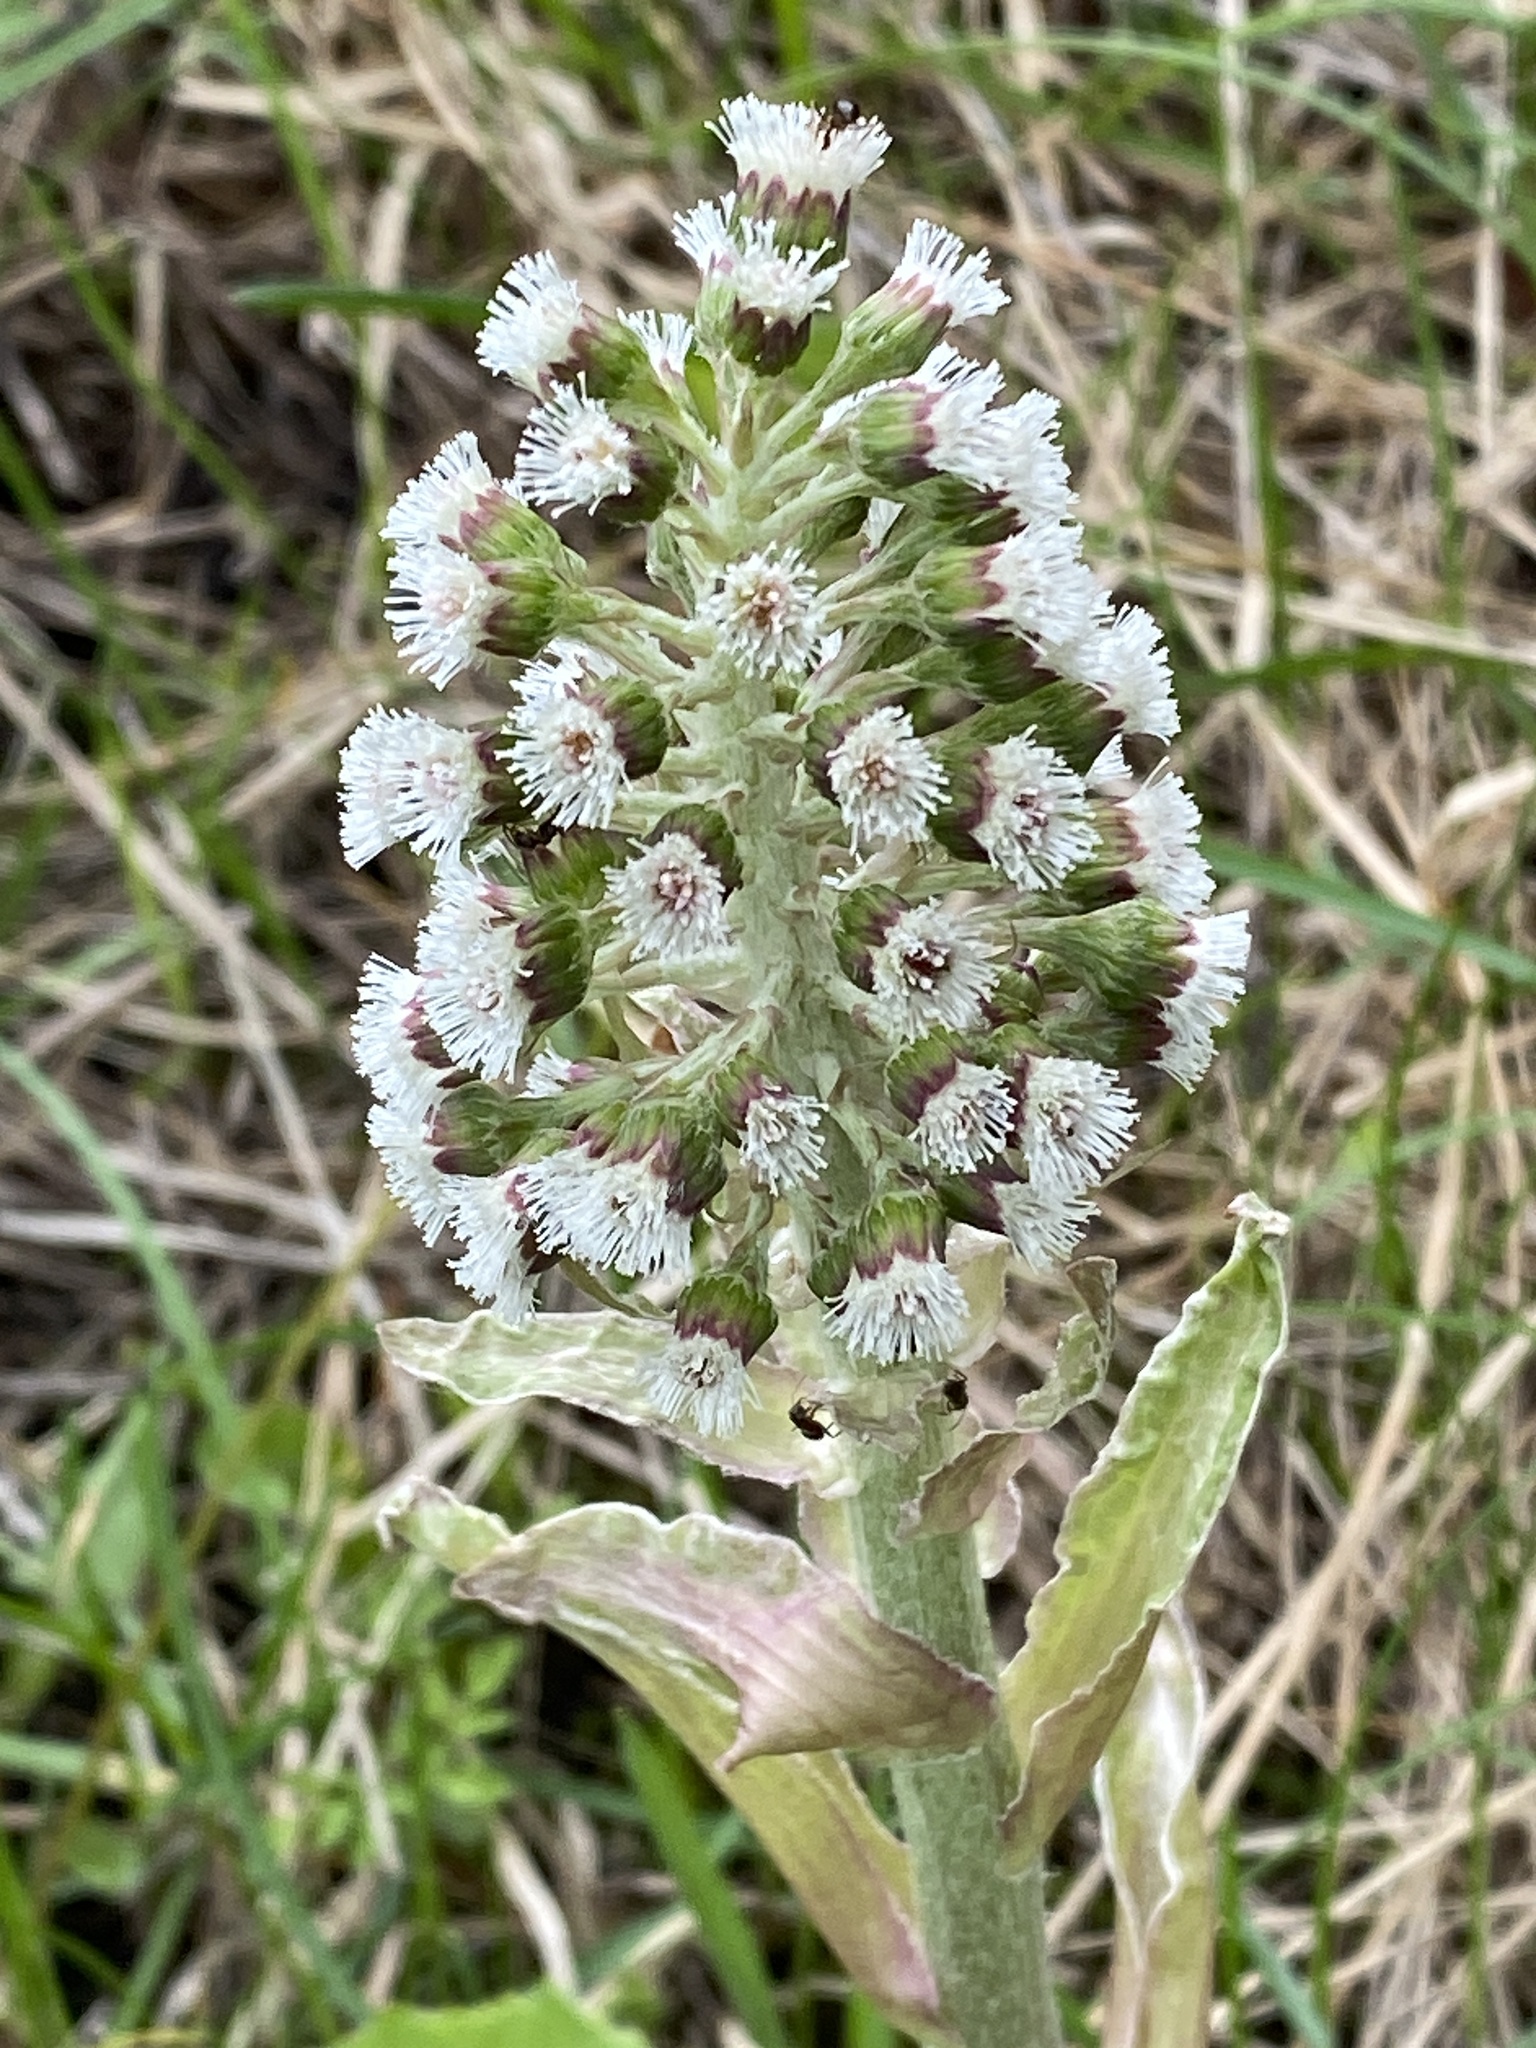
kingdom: Plantae
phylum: Tracheophyta
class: Magnoliopsida
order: Asterales
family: Asteraceae
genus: Petasites
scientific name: Petasites albus
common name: White butterbur
